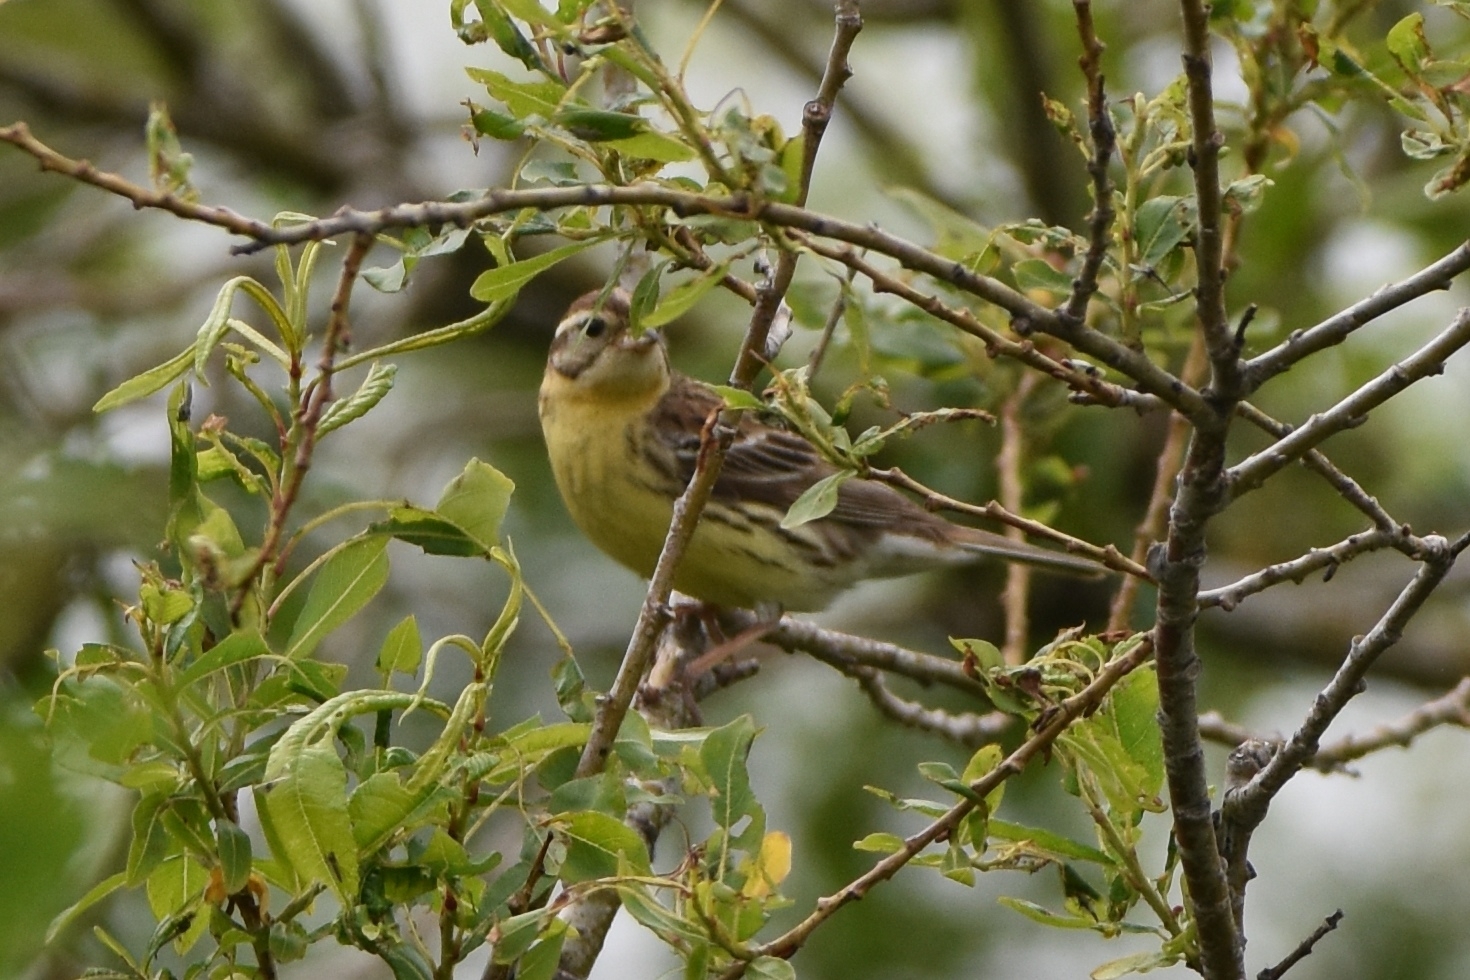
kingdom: Animalia
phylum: Chordata
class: Aves
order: Passeriformes
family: Emberizidae
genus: Emberiza
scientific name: Emberiza aureola
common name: Yellow-breasted bunting
